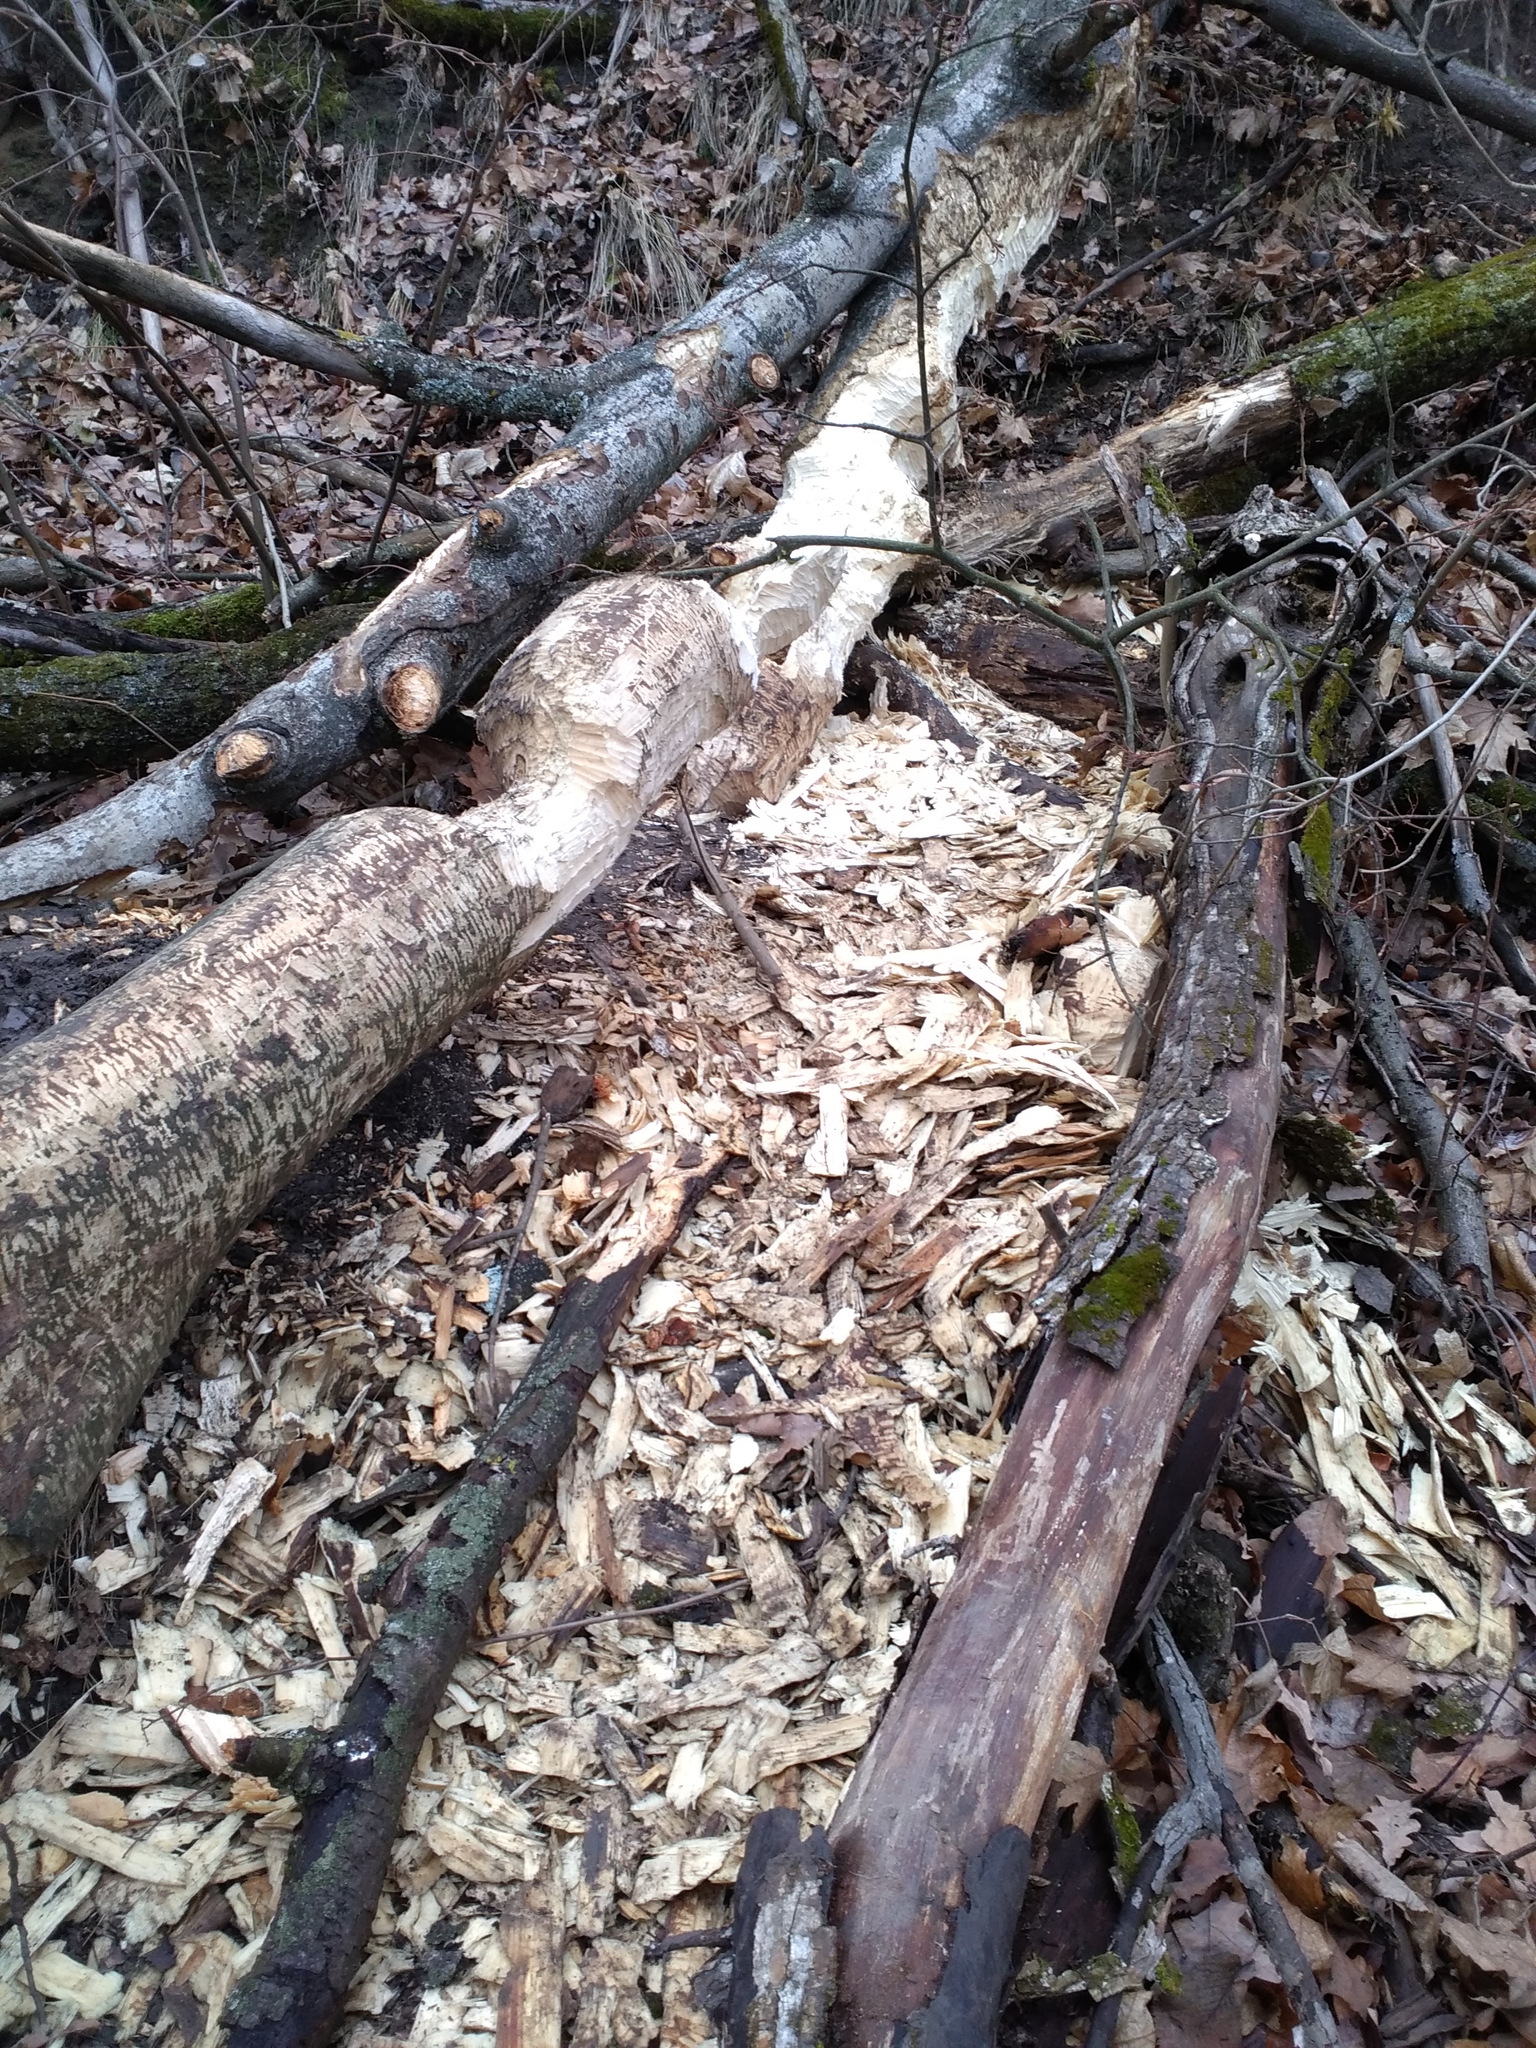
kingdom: Animalia
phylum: Chordata
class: Mammalia
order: Rodentia
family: Castoridae
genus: Castor
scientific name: Castor fiber
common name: Eurasian beaver
